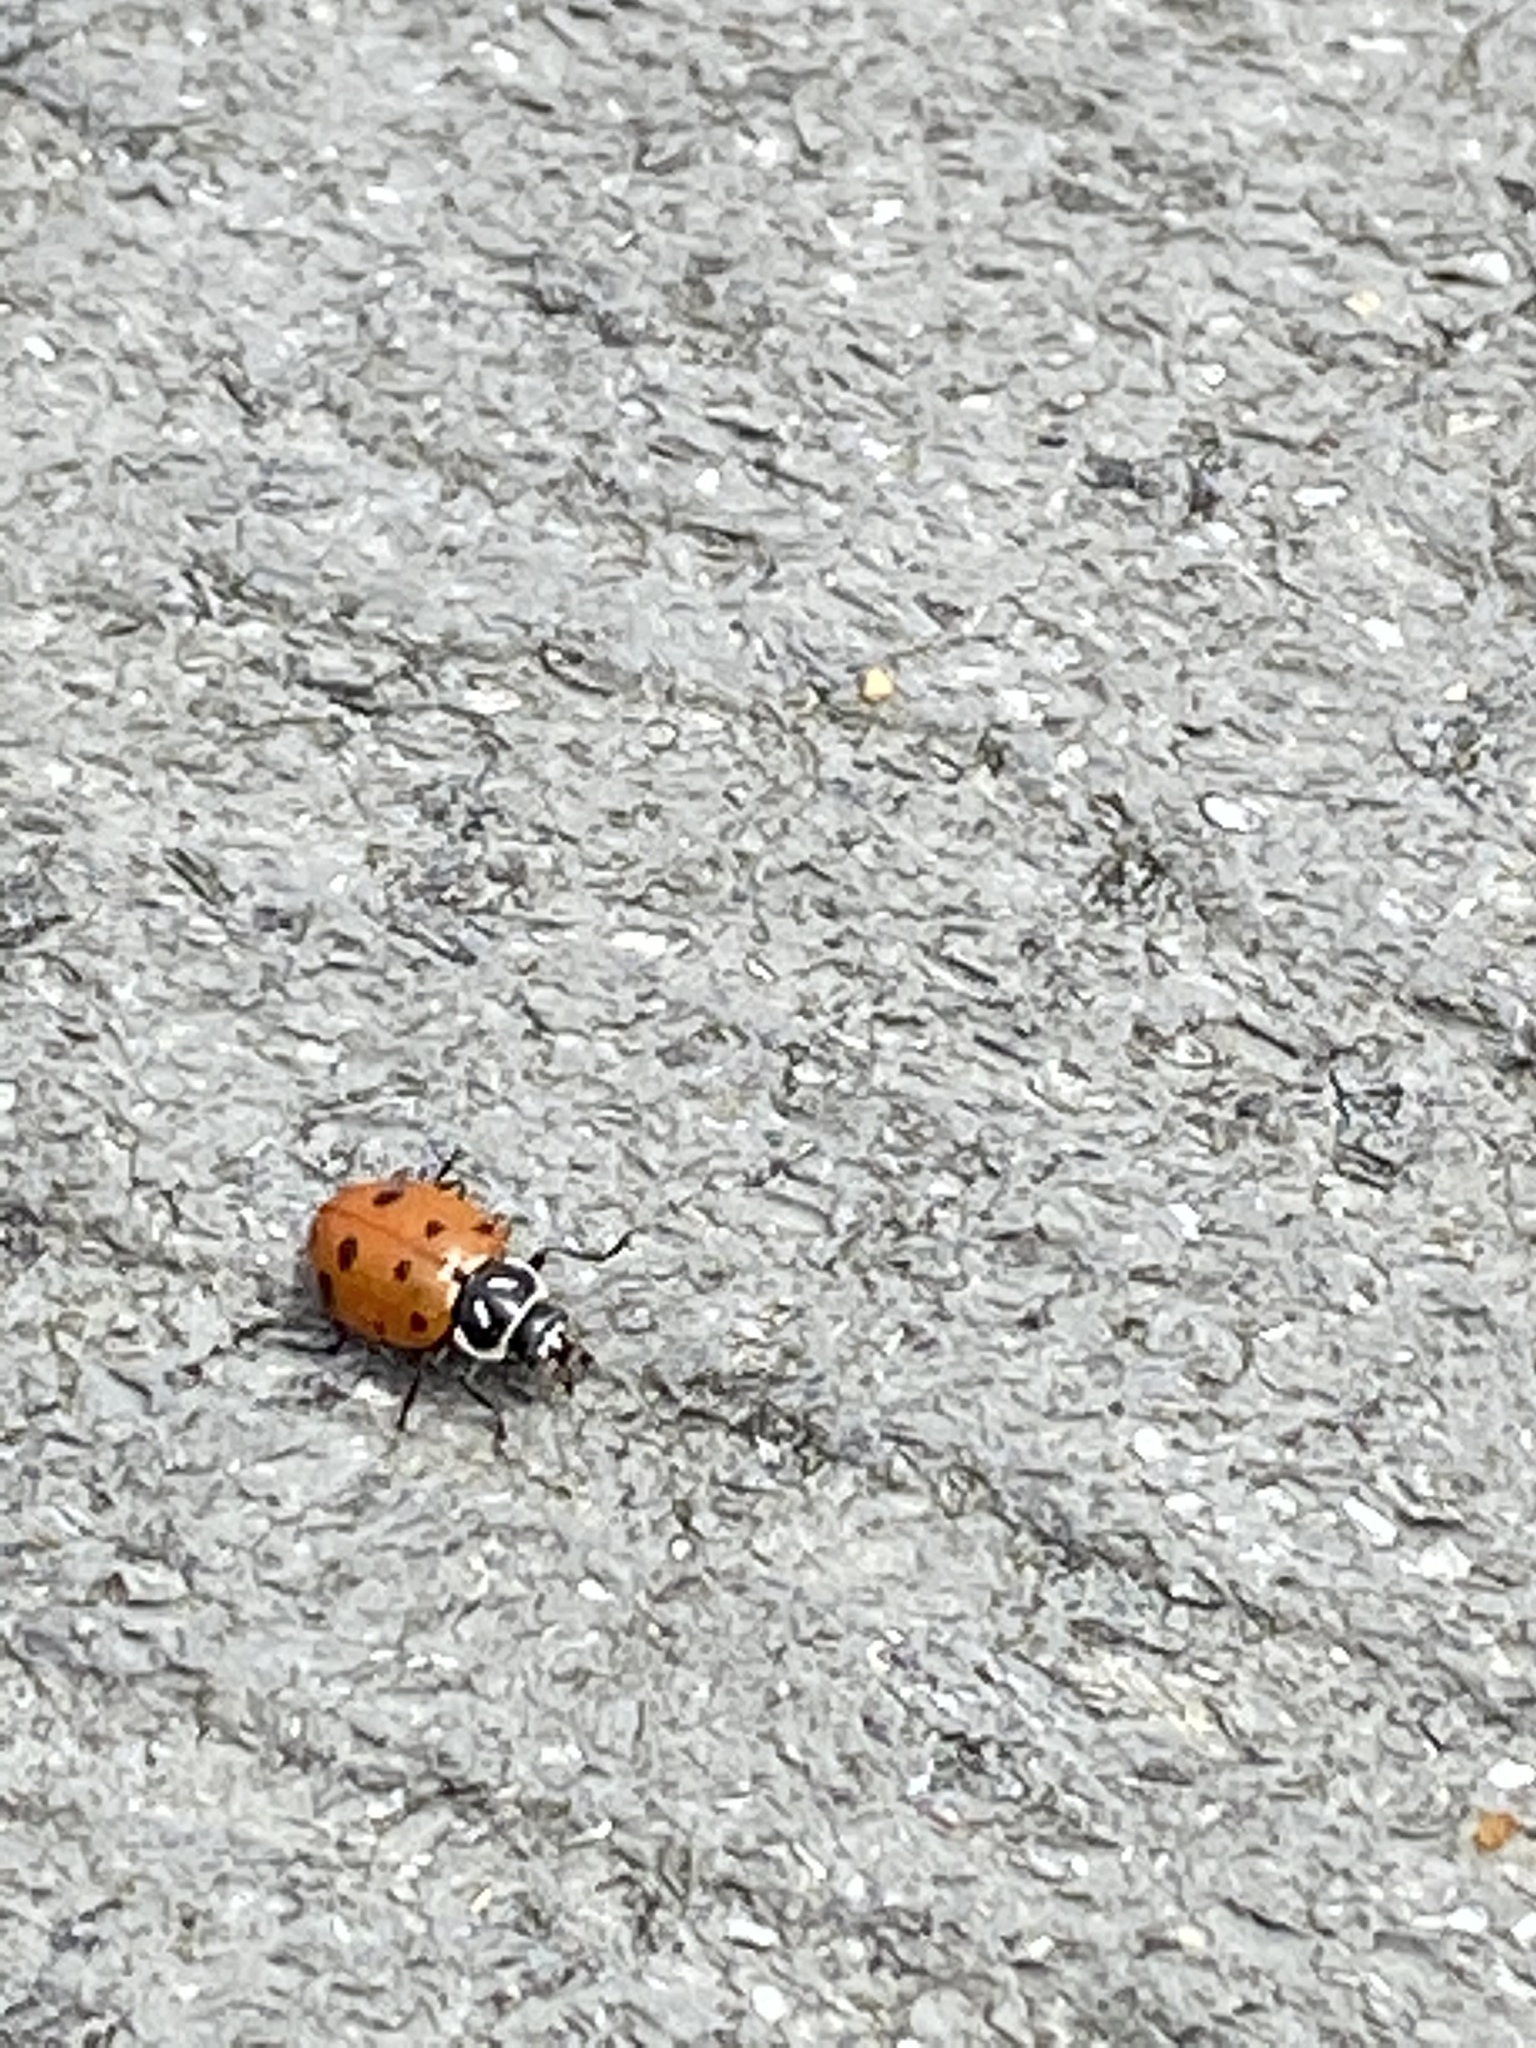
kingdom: Animalia
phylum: Arthropoda
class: Insecta
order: Coleoptera
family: Coccinellidae
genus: Hippodamia
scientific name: Hippodamia convergens
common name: Convergent lady beetle
